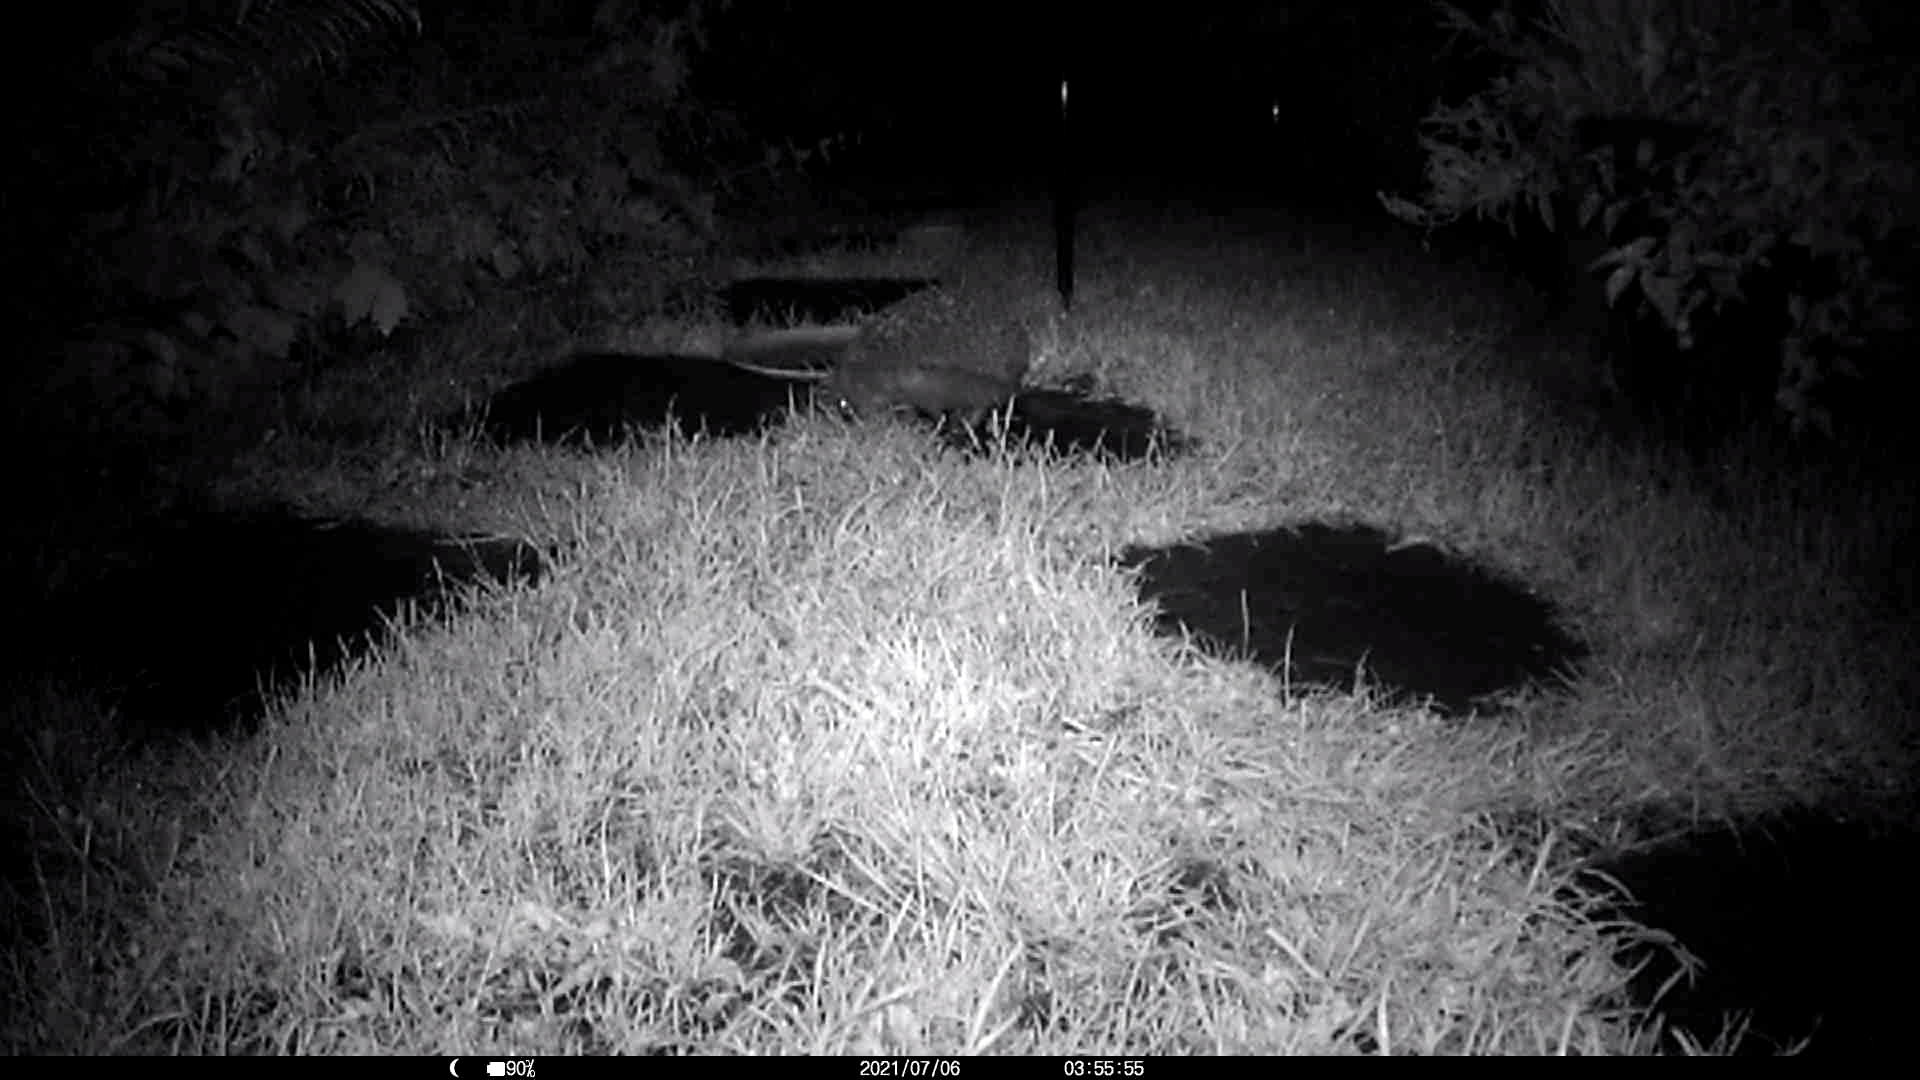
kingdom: Animalia
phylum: Chordata
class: Mammalia
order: Erinaceomorpha
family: Erinaceidae
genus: Erinaceus
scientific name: Erinaceus europaeus
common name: West european hedgehog
